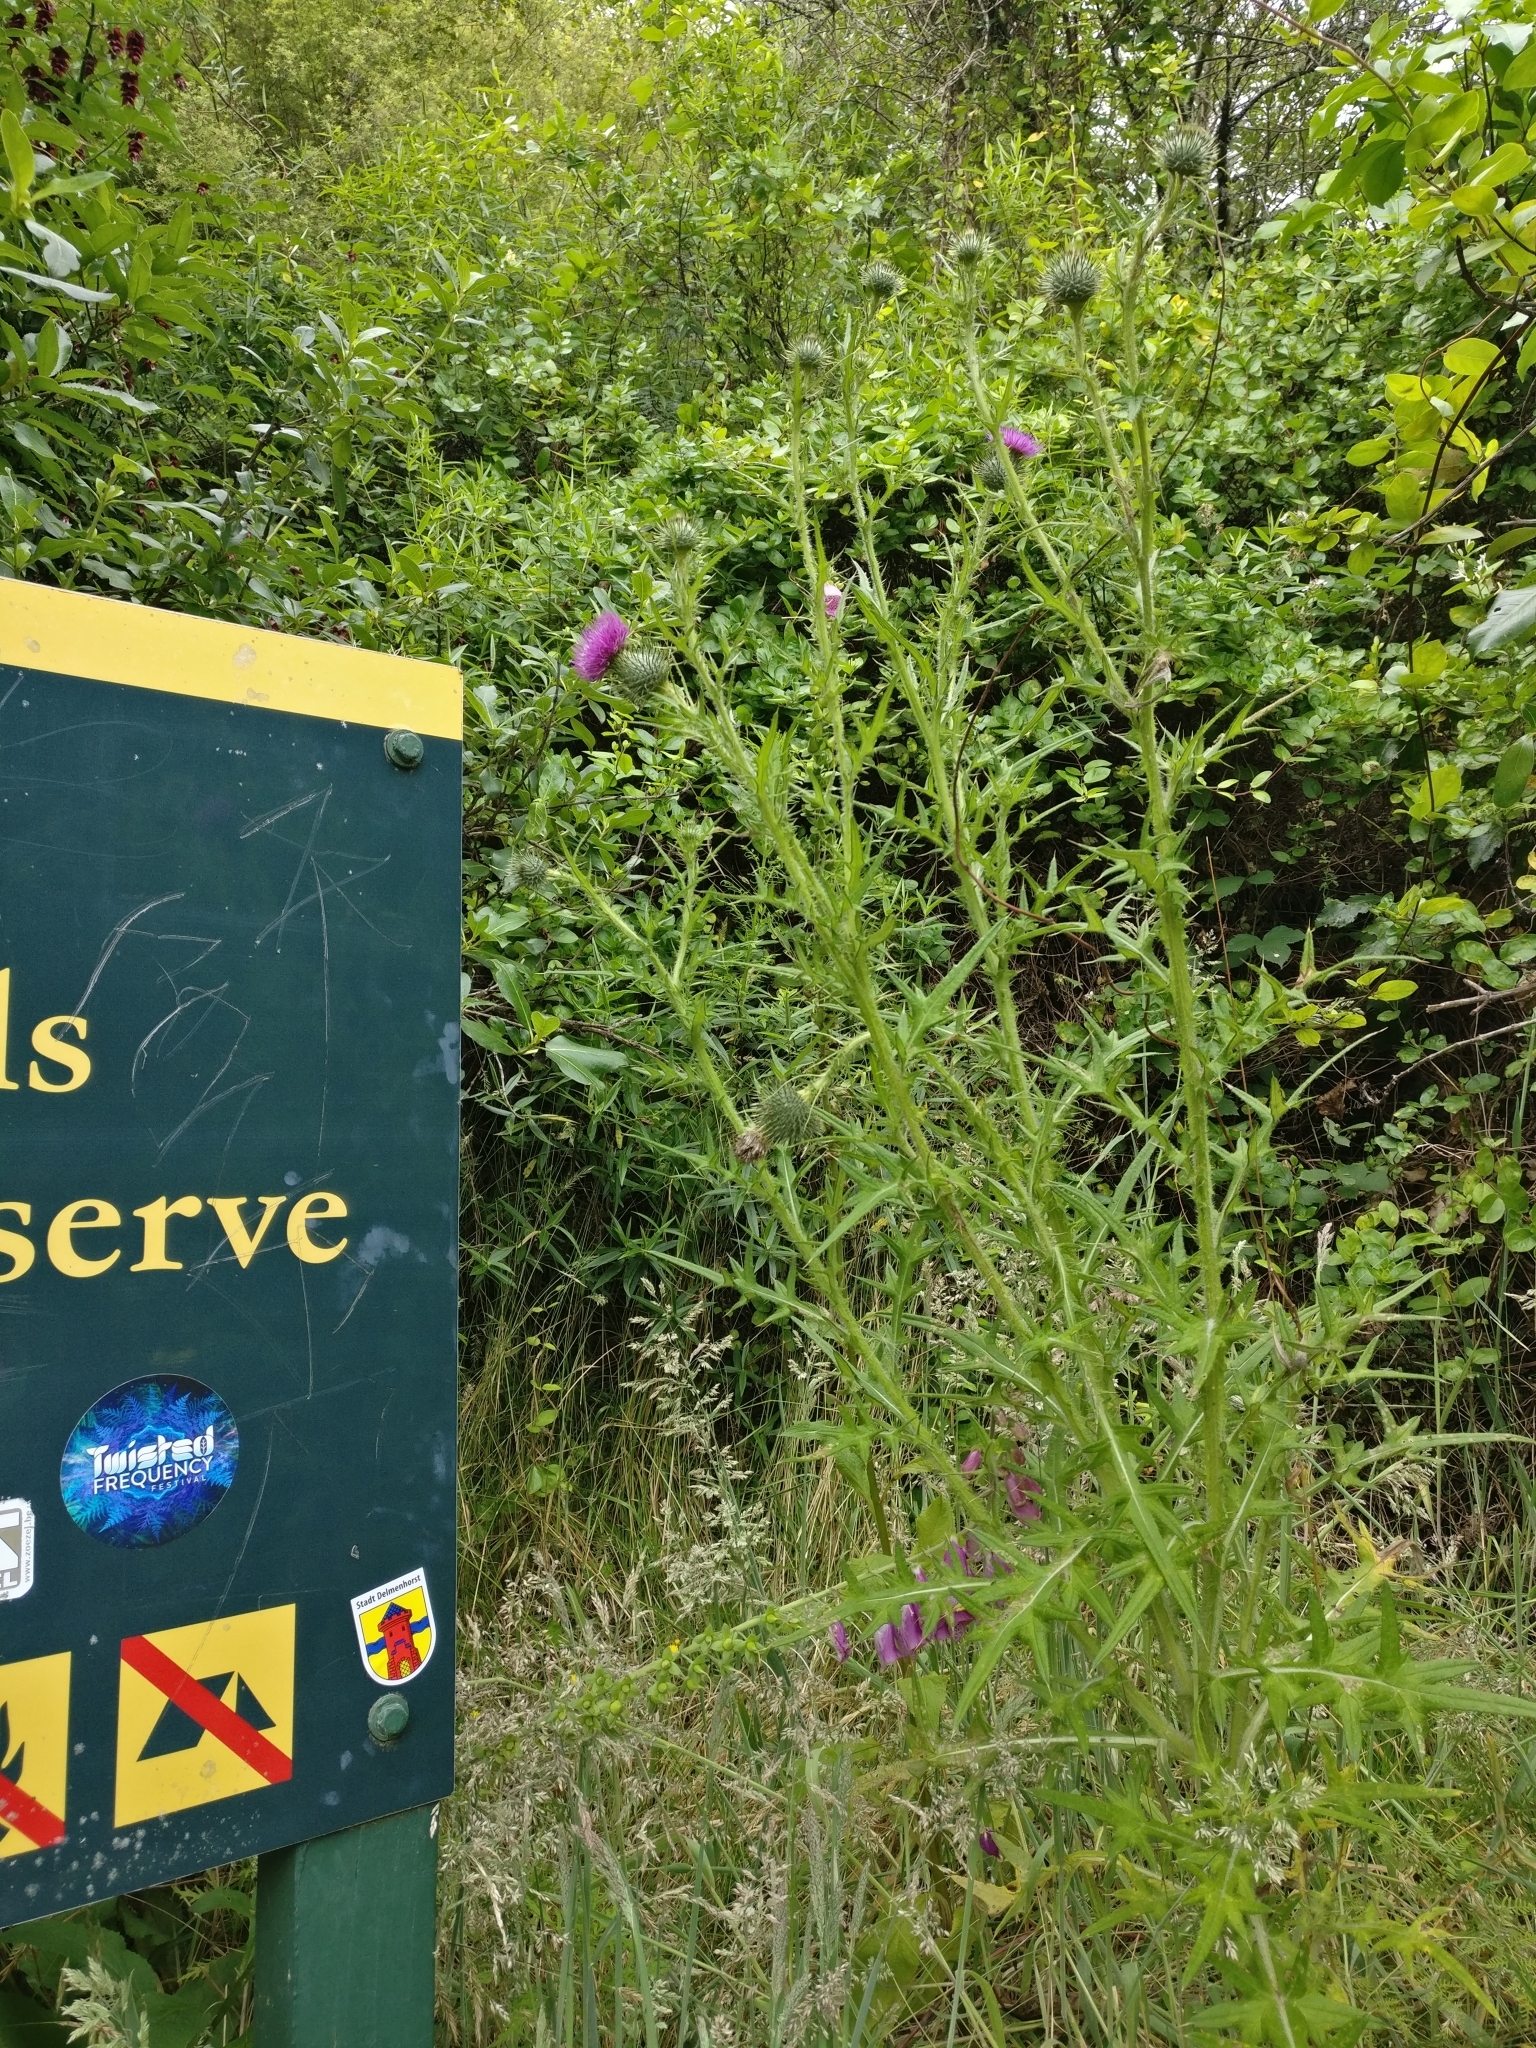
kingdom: Plantae
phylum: Tracheophyta
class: Magnoliopsida
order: Asterales
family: Asteraceae
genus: Cirsium
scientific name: Cirsium vulgare
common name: Bull thistle
